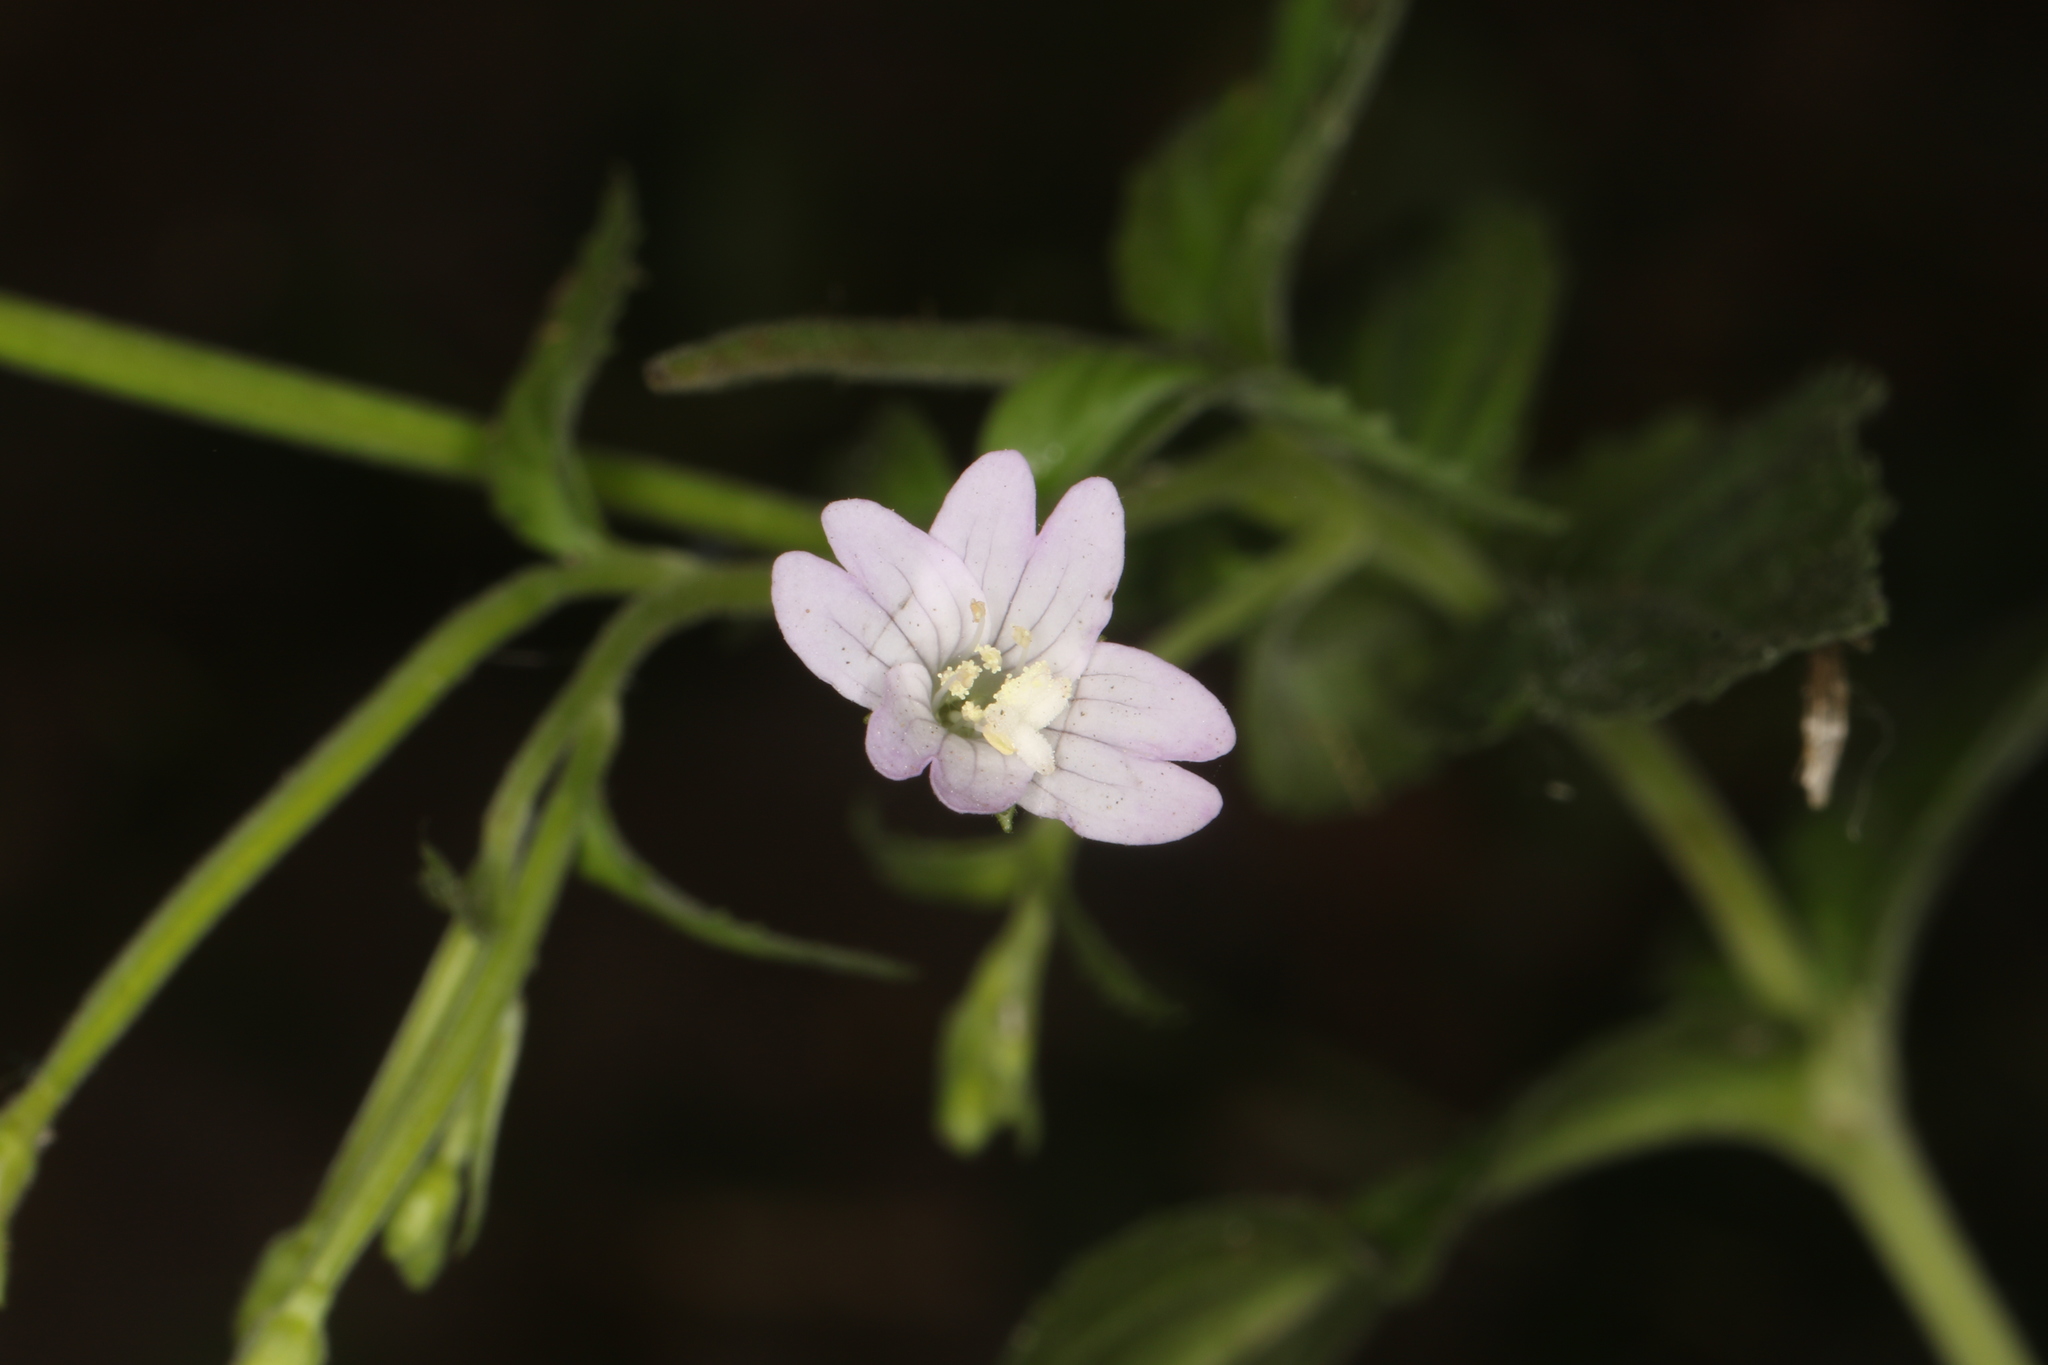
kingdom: Plantae
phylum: Tracheophyta
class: Magnoliopsida
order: Myrtales
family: Onagraceae
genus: Epilobium
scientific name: Epilobium montanum
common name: Broad-leaved willowherb
